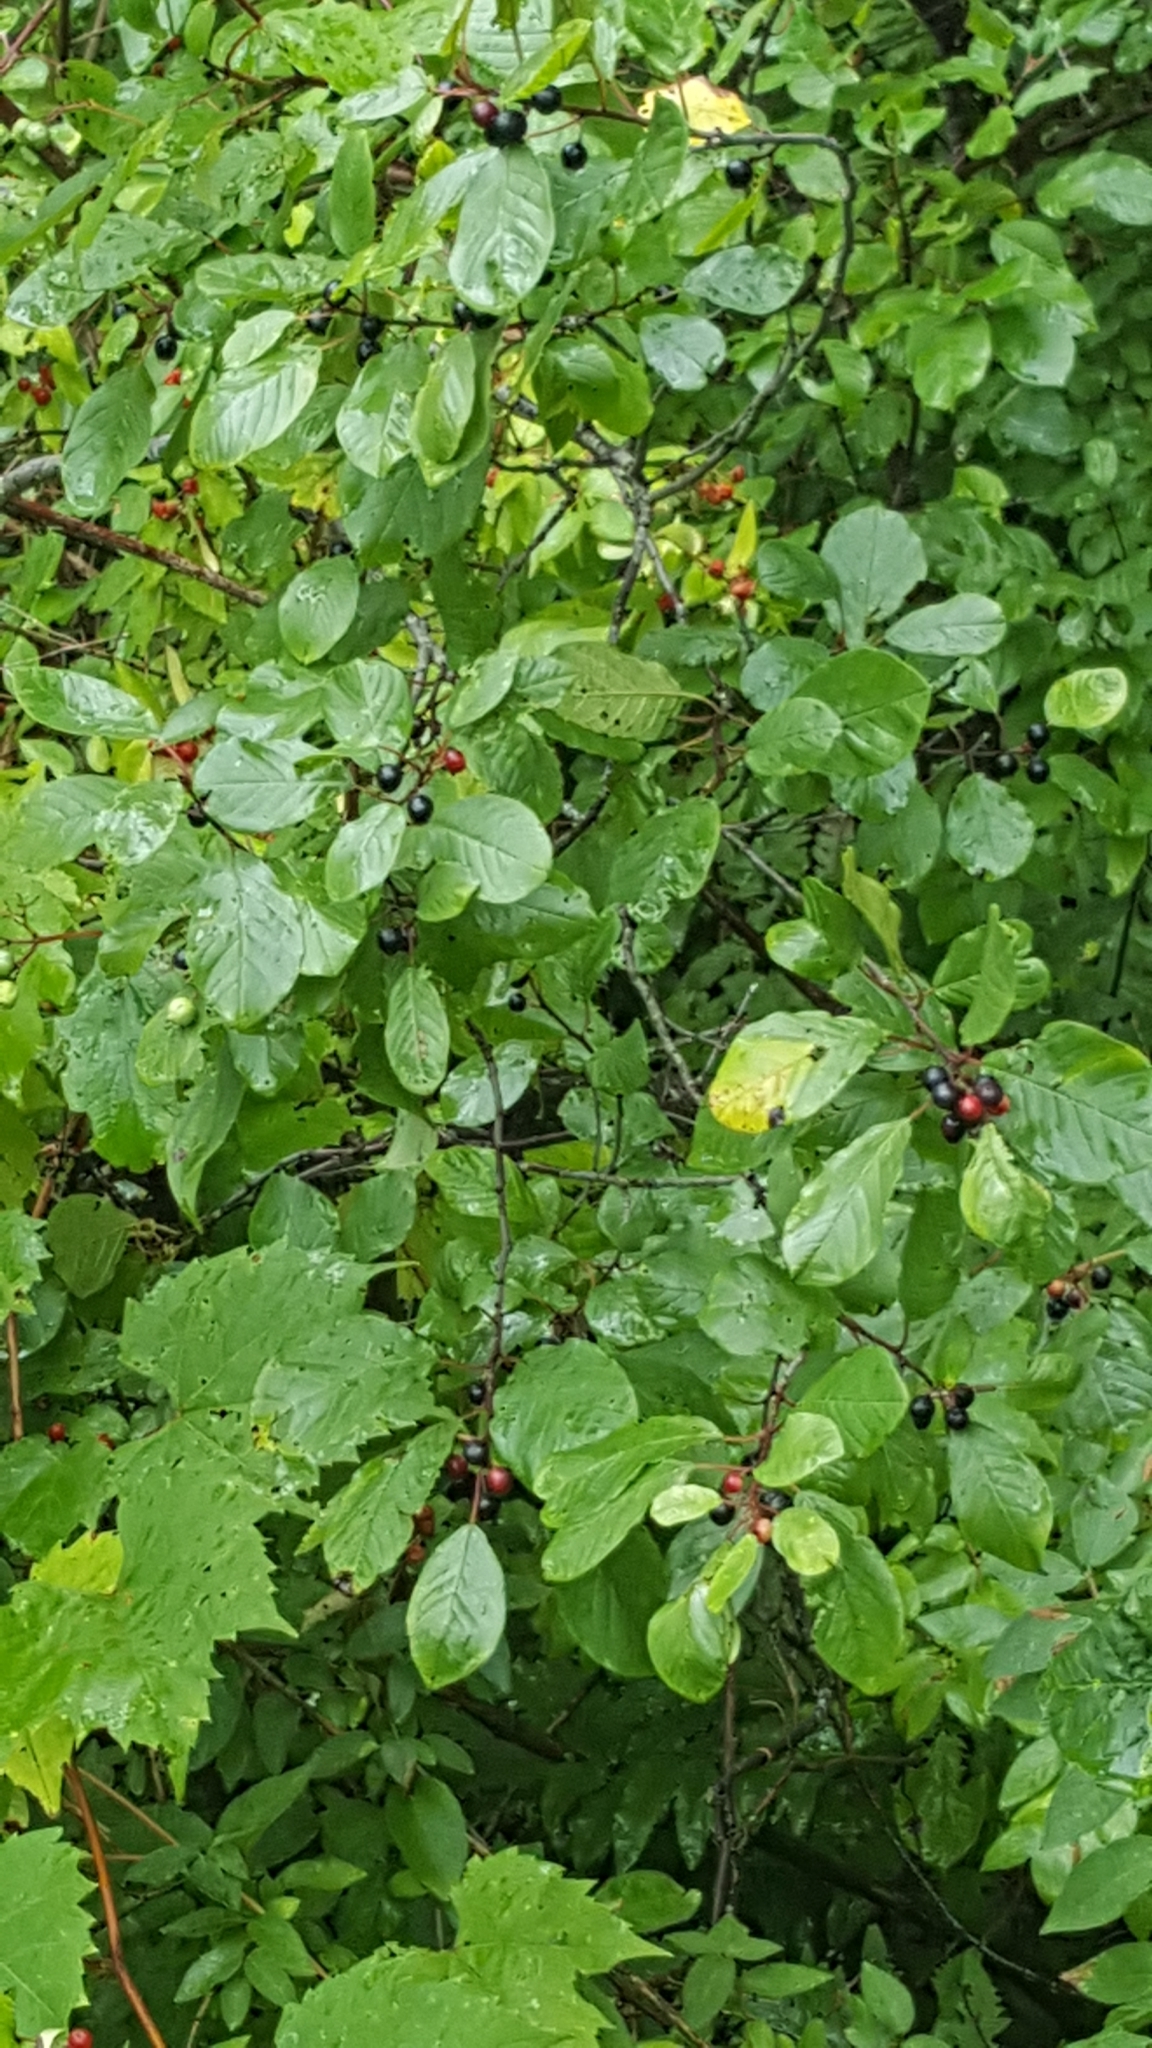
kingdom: Plantae
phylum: Tracheophyta
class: Magnoliopsida
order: Rosales
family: Rhamnaceae
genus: Frangula
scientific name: Frangula alnus
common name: Alder buckthorn
